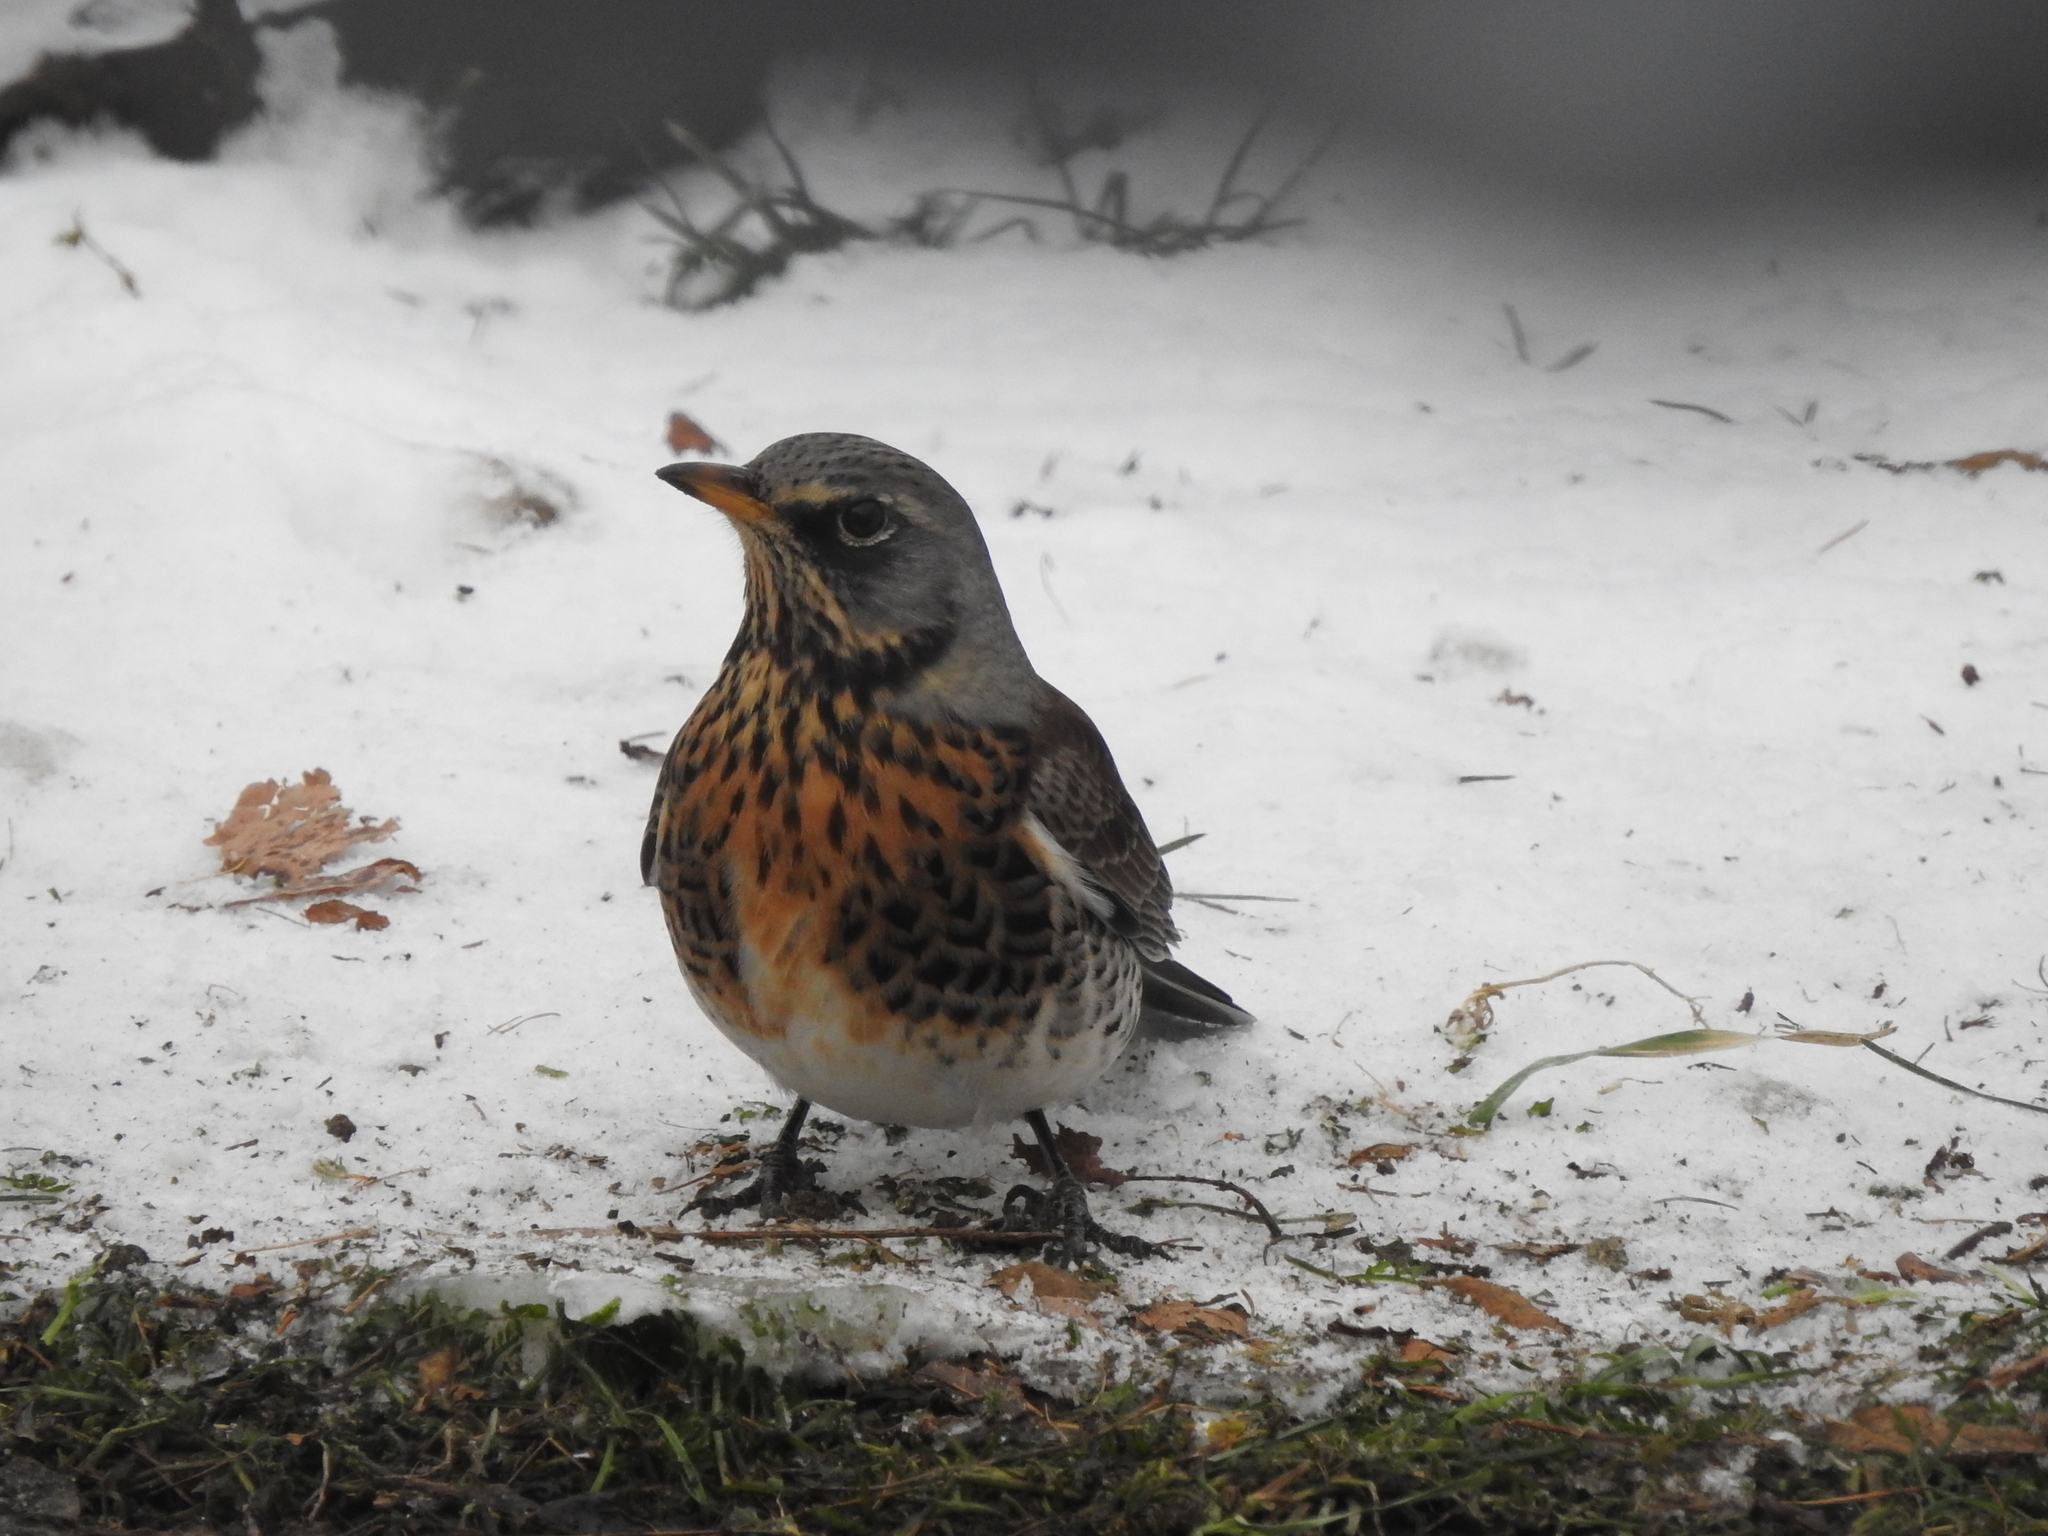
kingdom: Animalia
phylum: Chordata
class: Aves
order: Passeriformes
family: Turdidae
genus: Turdus
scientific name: Turdus pilaris
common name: Fieldfare
